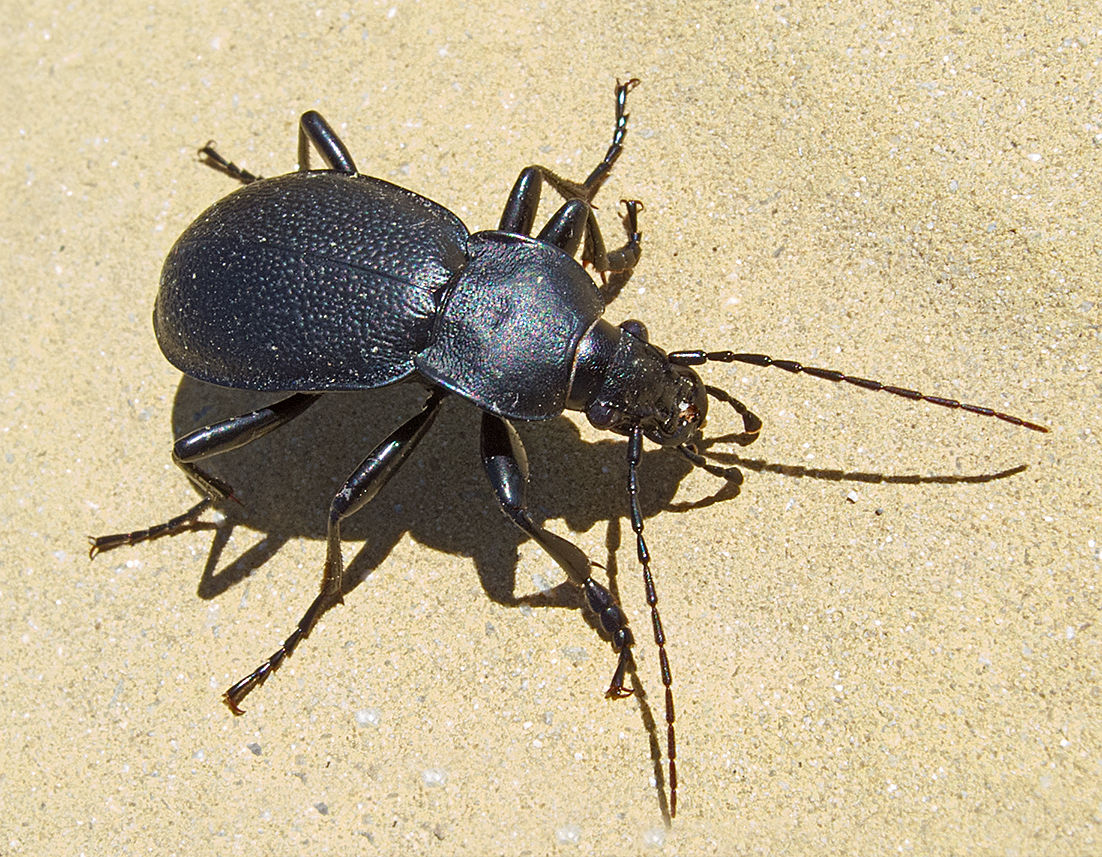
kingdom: Animalia
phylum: Arthropoda
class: Insecta
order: Coleoptera
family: Carabidae
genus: Carabus
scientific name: Carabus coriaceus
